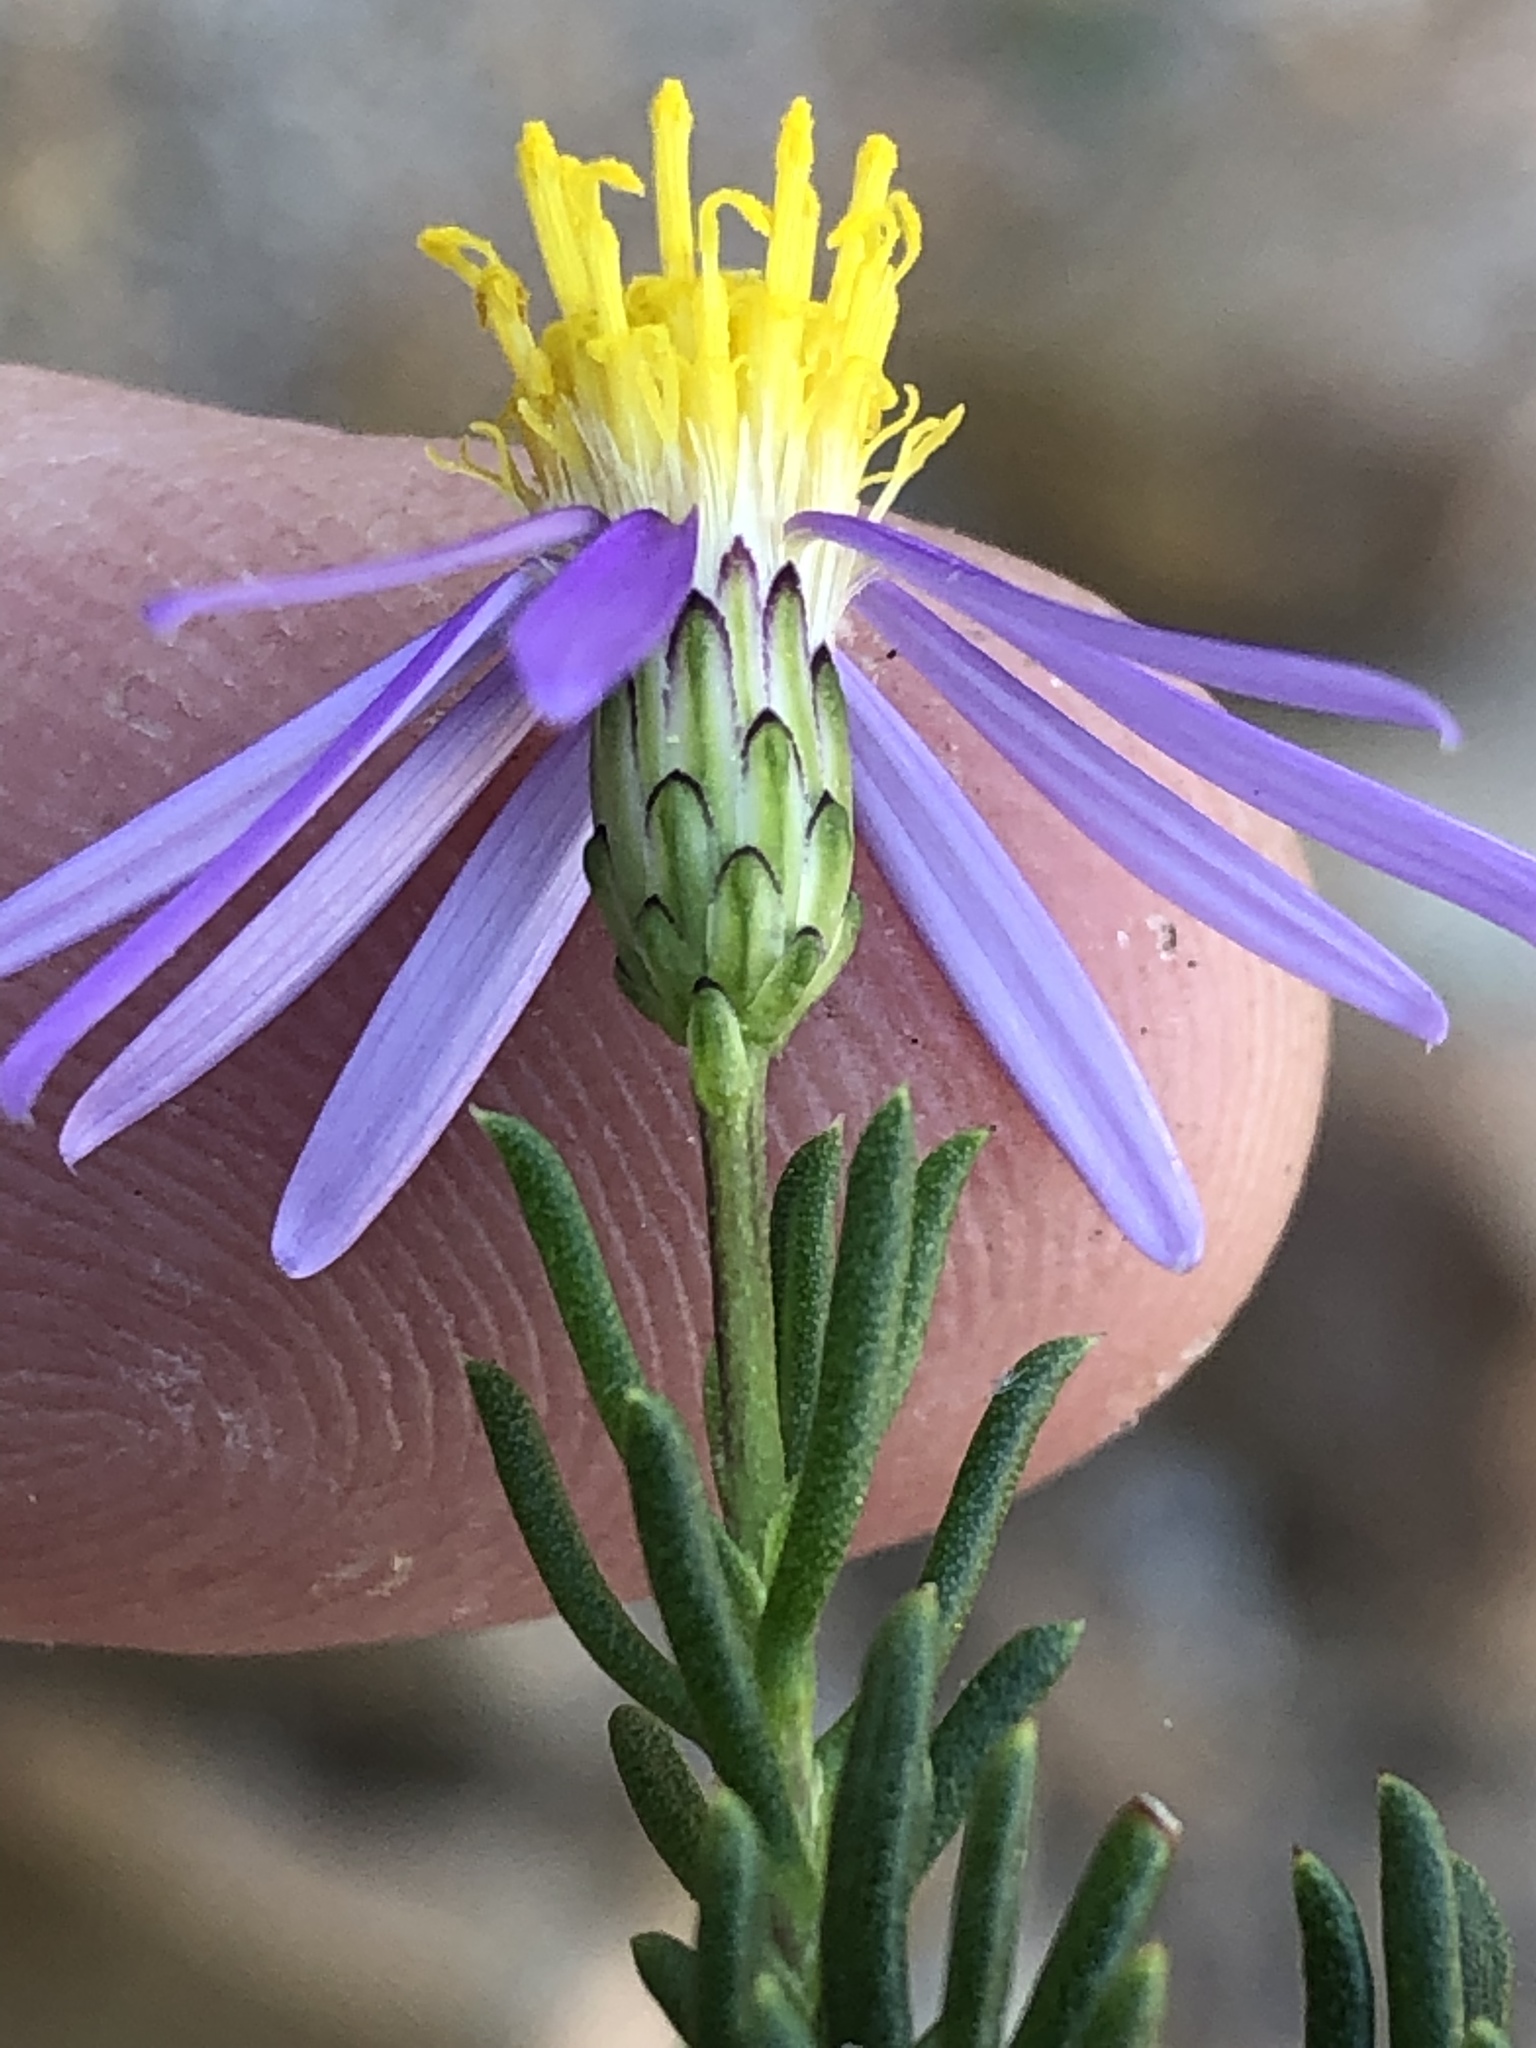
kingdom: Plantae
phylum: Tracheophyta
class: Magnoliopsida
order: Asterales
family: Asteraceae
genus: Felicia
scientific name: Felicia filifolia
